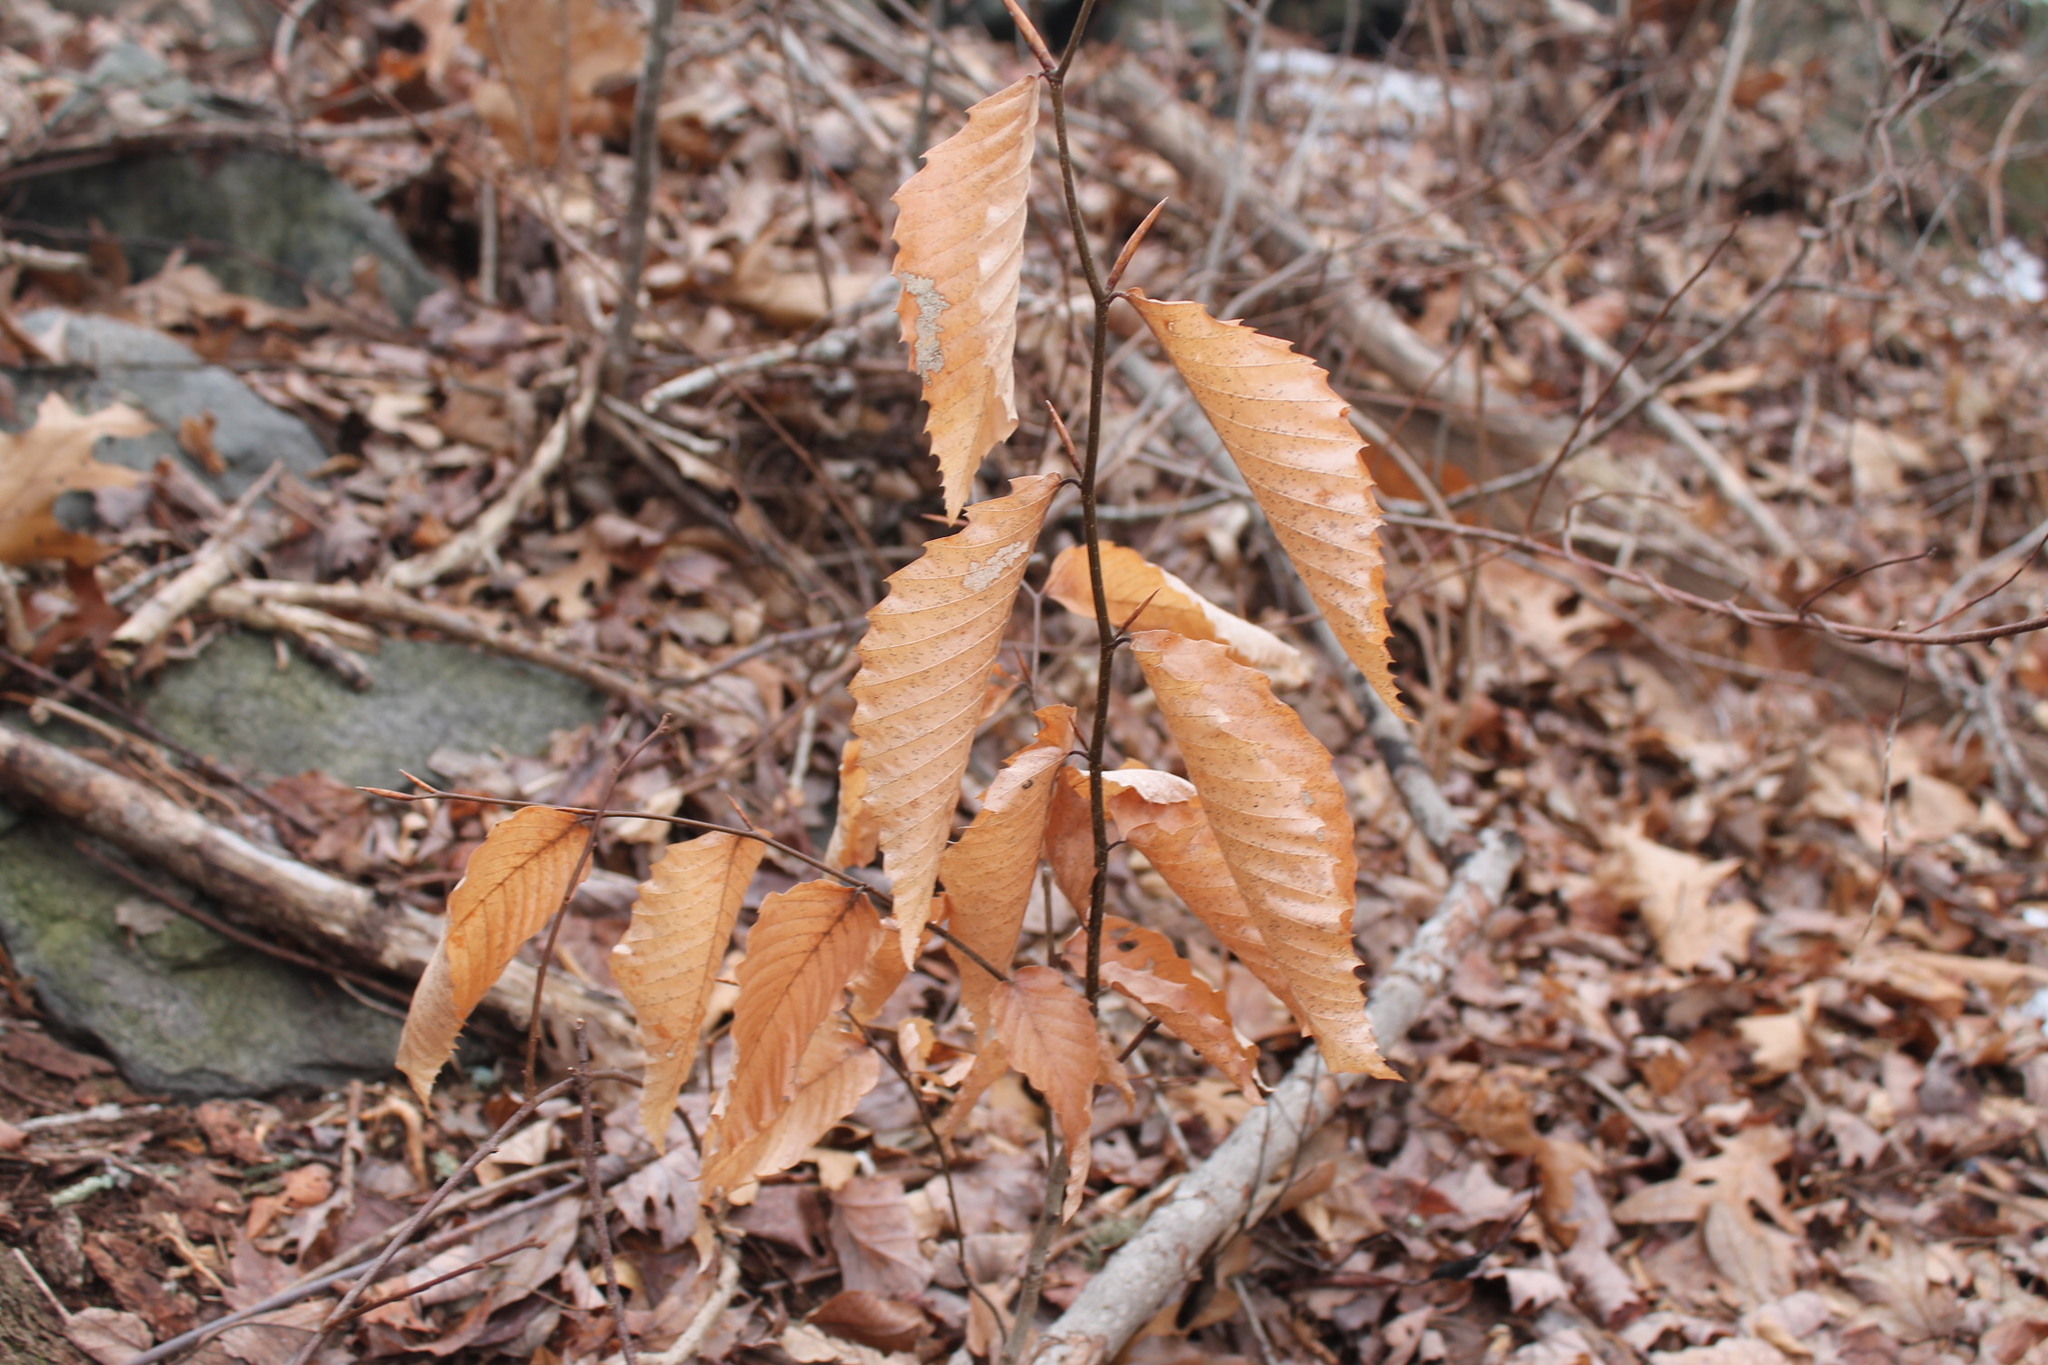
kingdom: Plantae
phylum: Tracheophyta
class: Magnoliopsida
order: Fagales
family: Fagaceae
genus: Fagus
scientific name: Fagus grandifolia
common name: American beech
